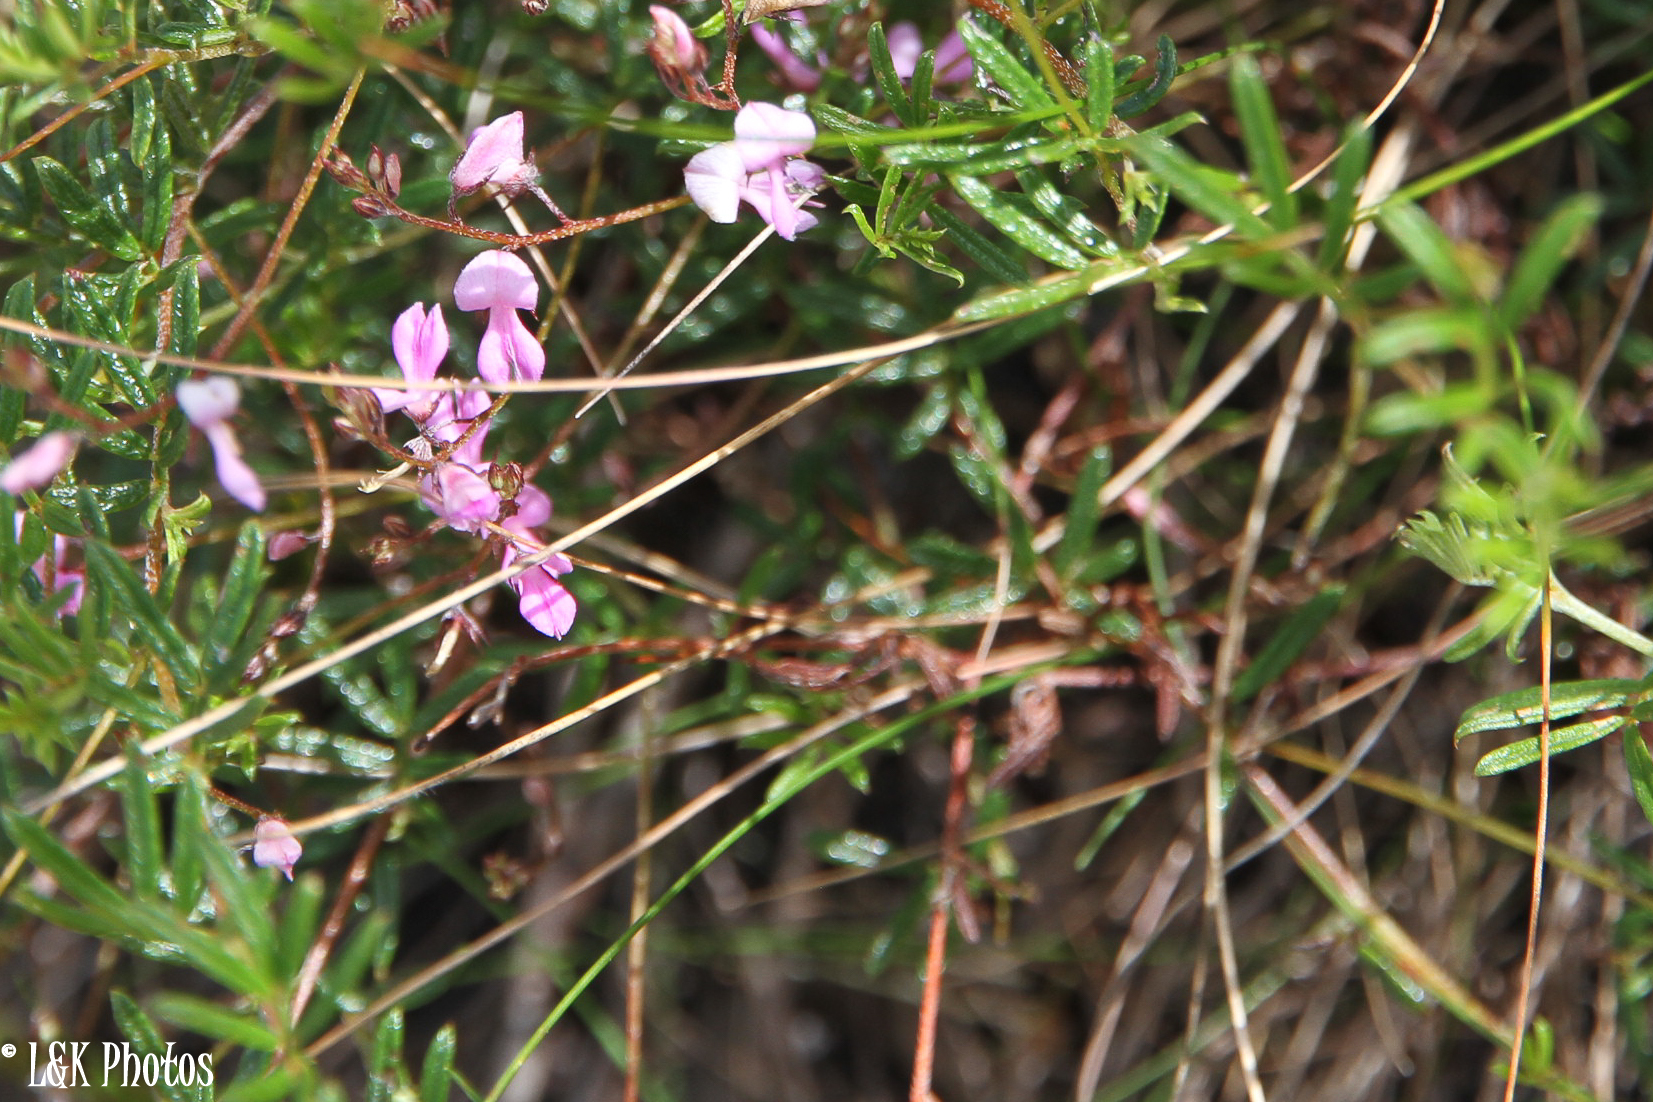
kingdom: Plantae
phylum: Tracheophyta
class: Magnoliopsida
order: Fabales
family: Fabaceae
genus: Indigofera
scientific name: Indigofera angustifolia
